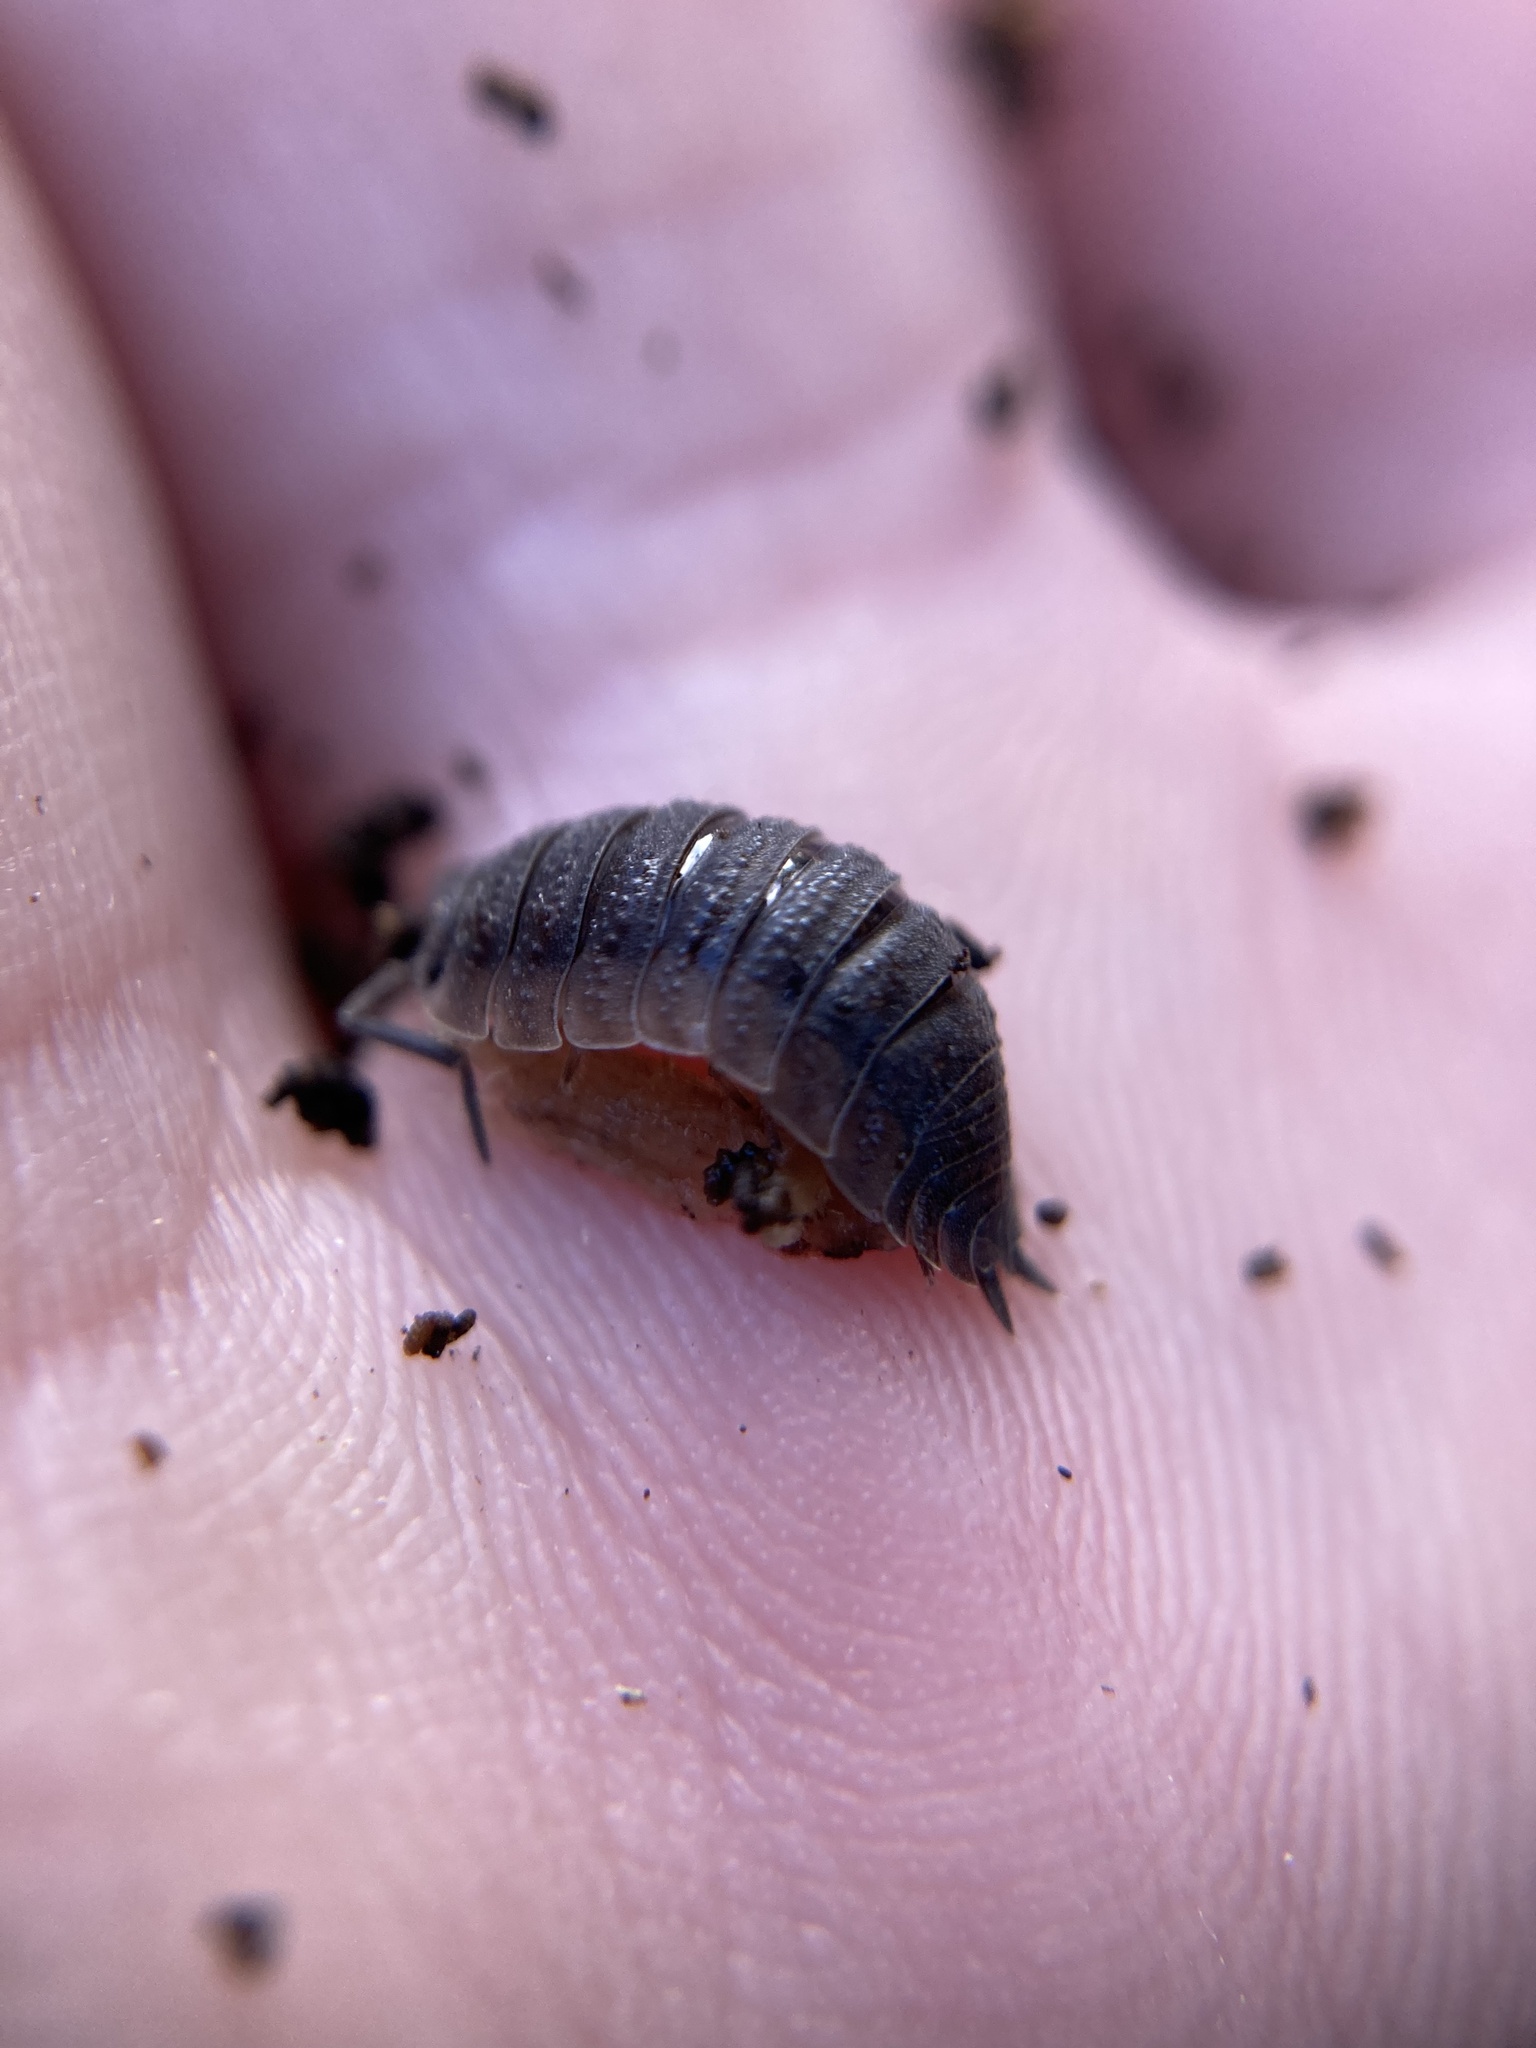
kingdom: Animalia
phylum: Arthropoda
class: Malacostraca
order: Isopoda
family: Porcellionidae
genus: Porcellio
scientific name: Porcellio scaber
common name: Common rough woodlouse
